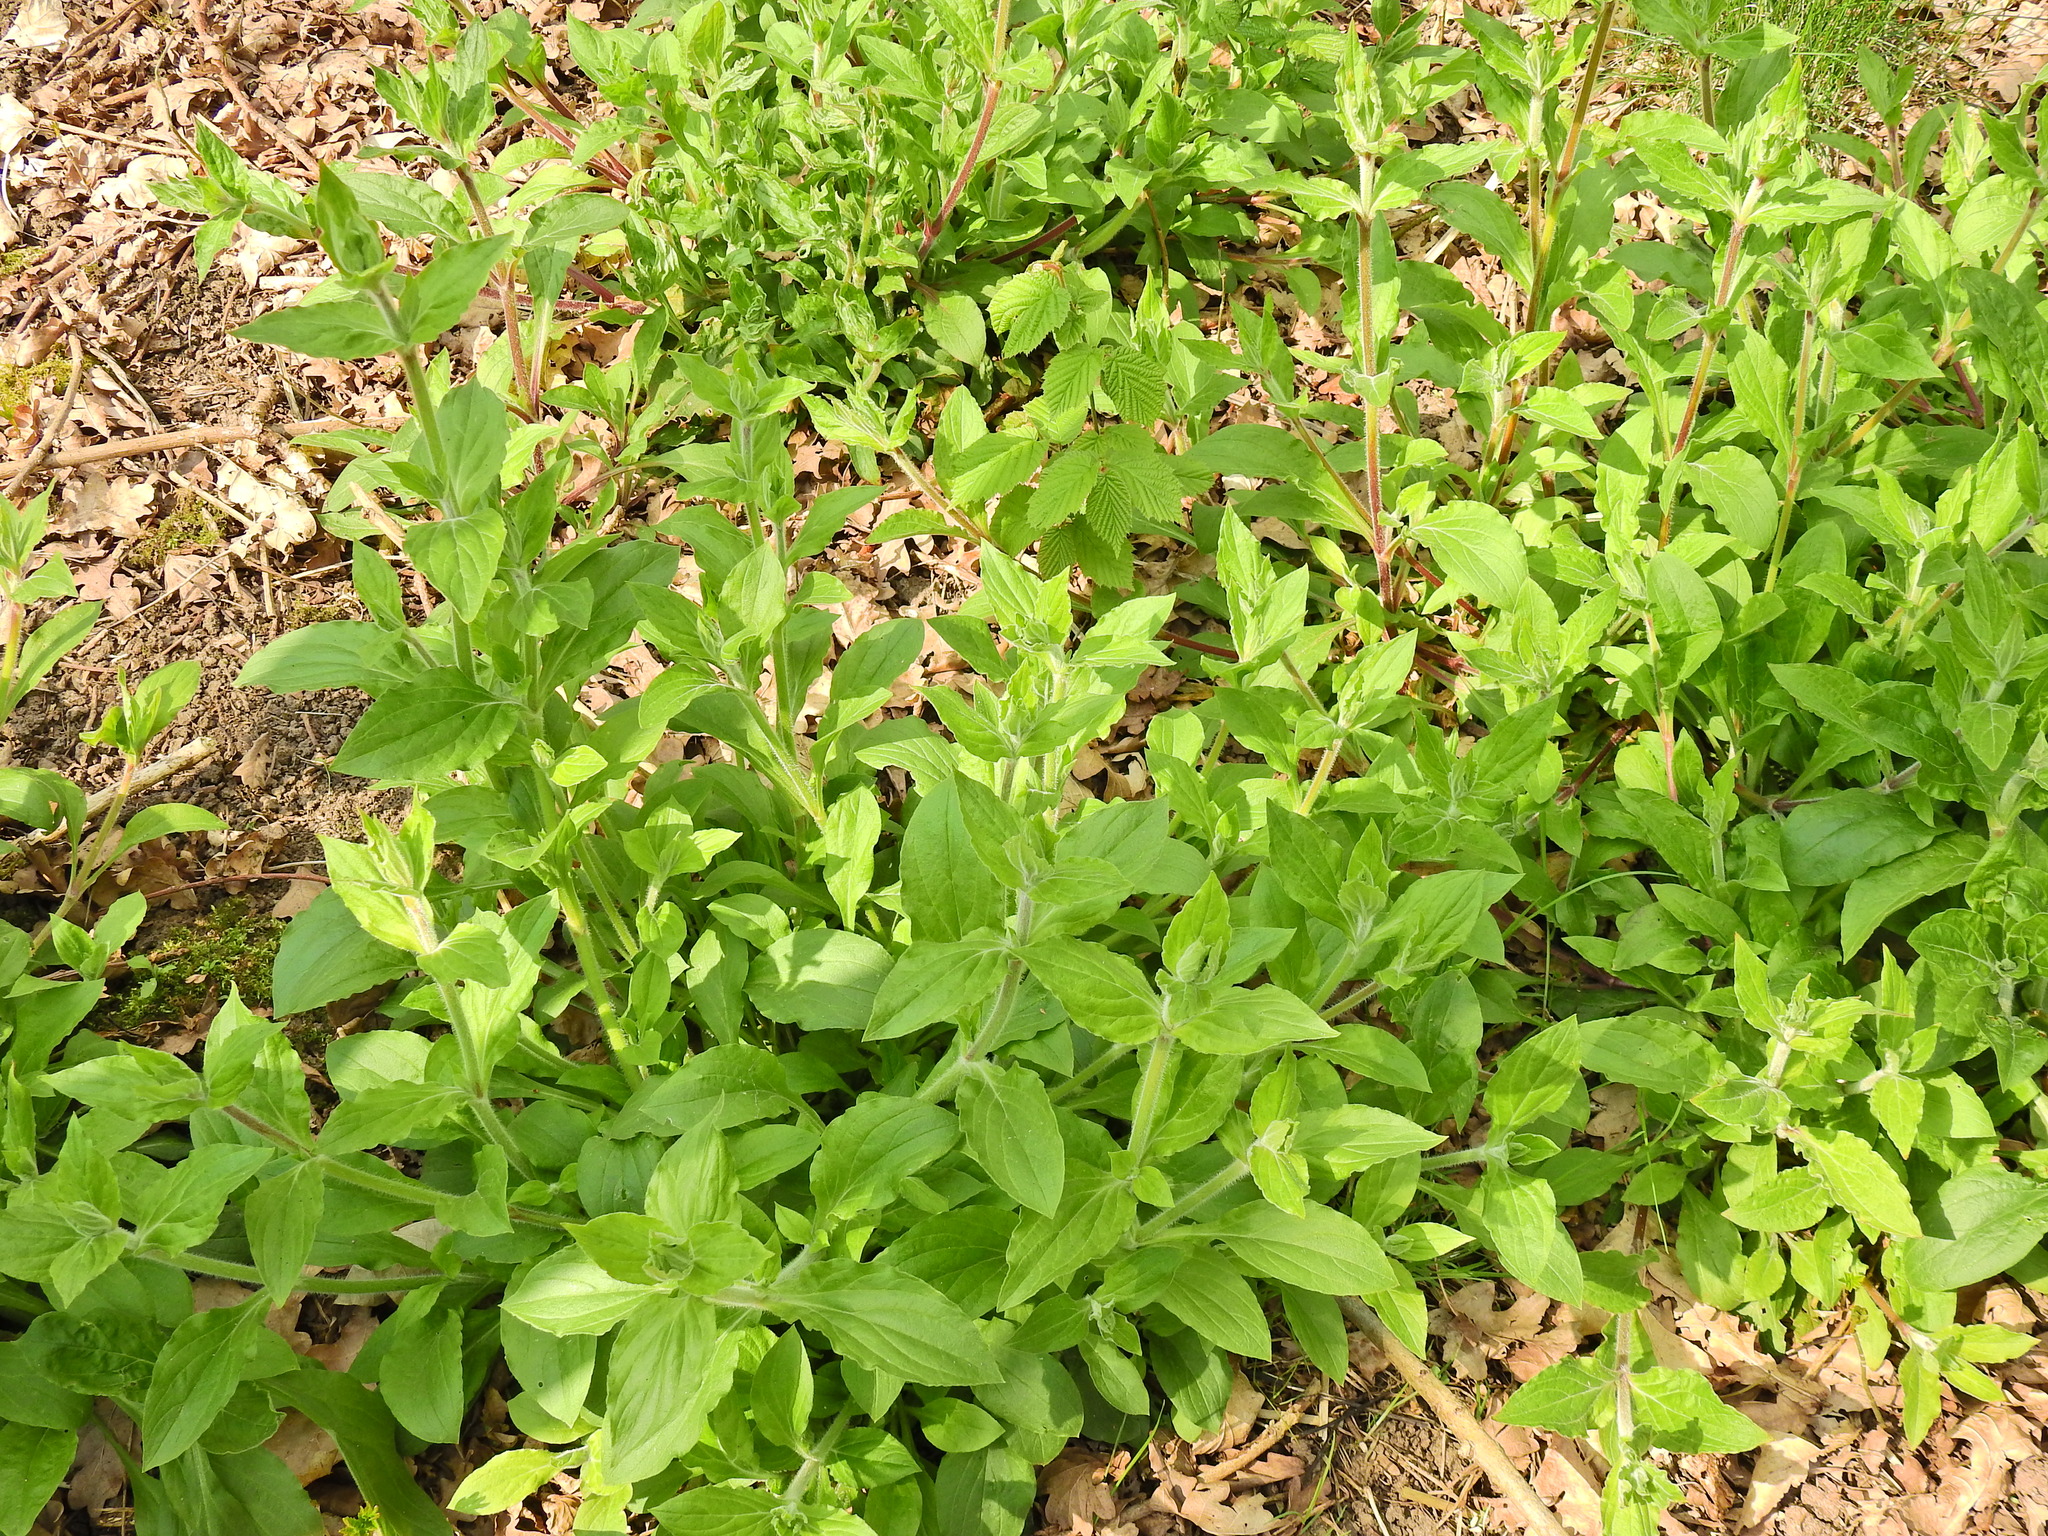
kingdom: Plantae
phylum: Tracheophyta
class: Magnoliopsida
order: Caryophyllales
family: Caryophyllaceae
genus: Silene
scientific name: Silene dioica
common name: Red campion
